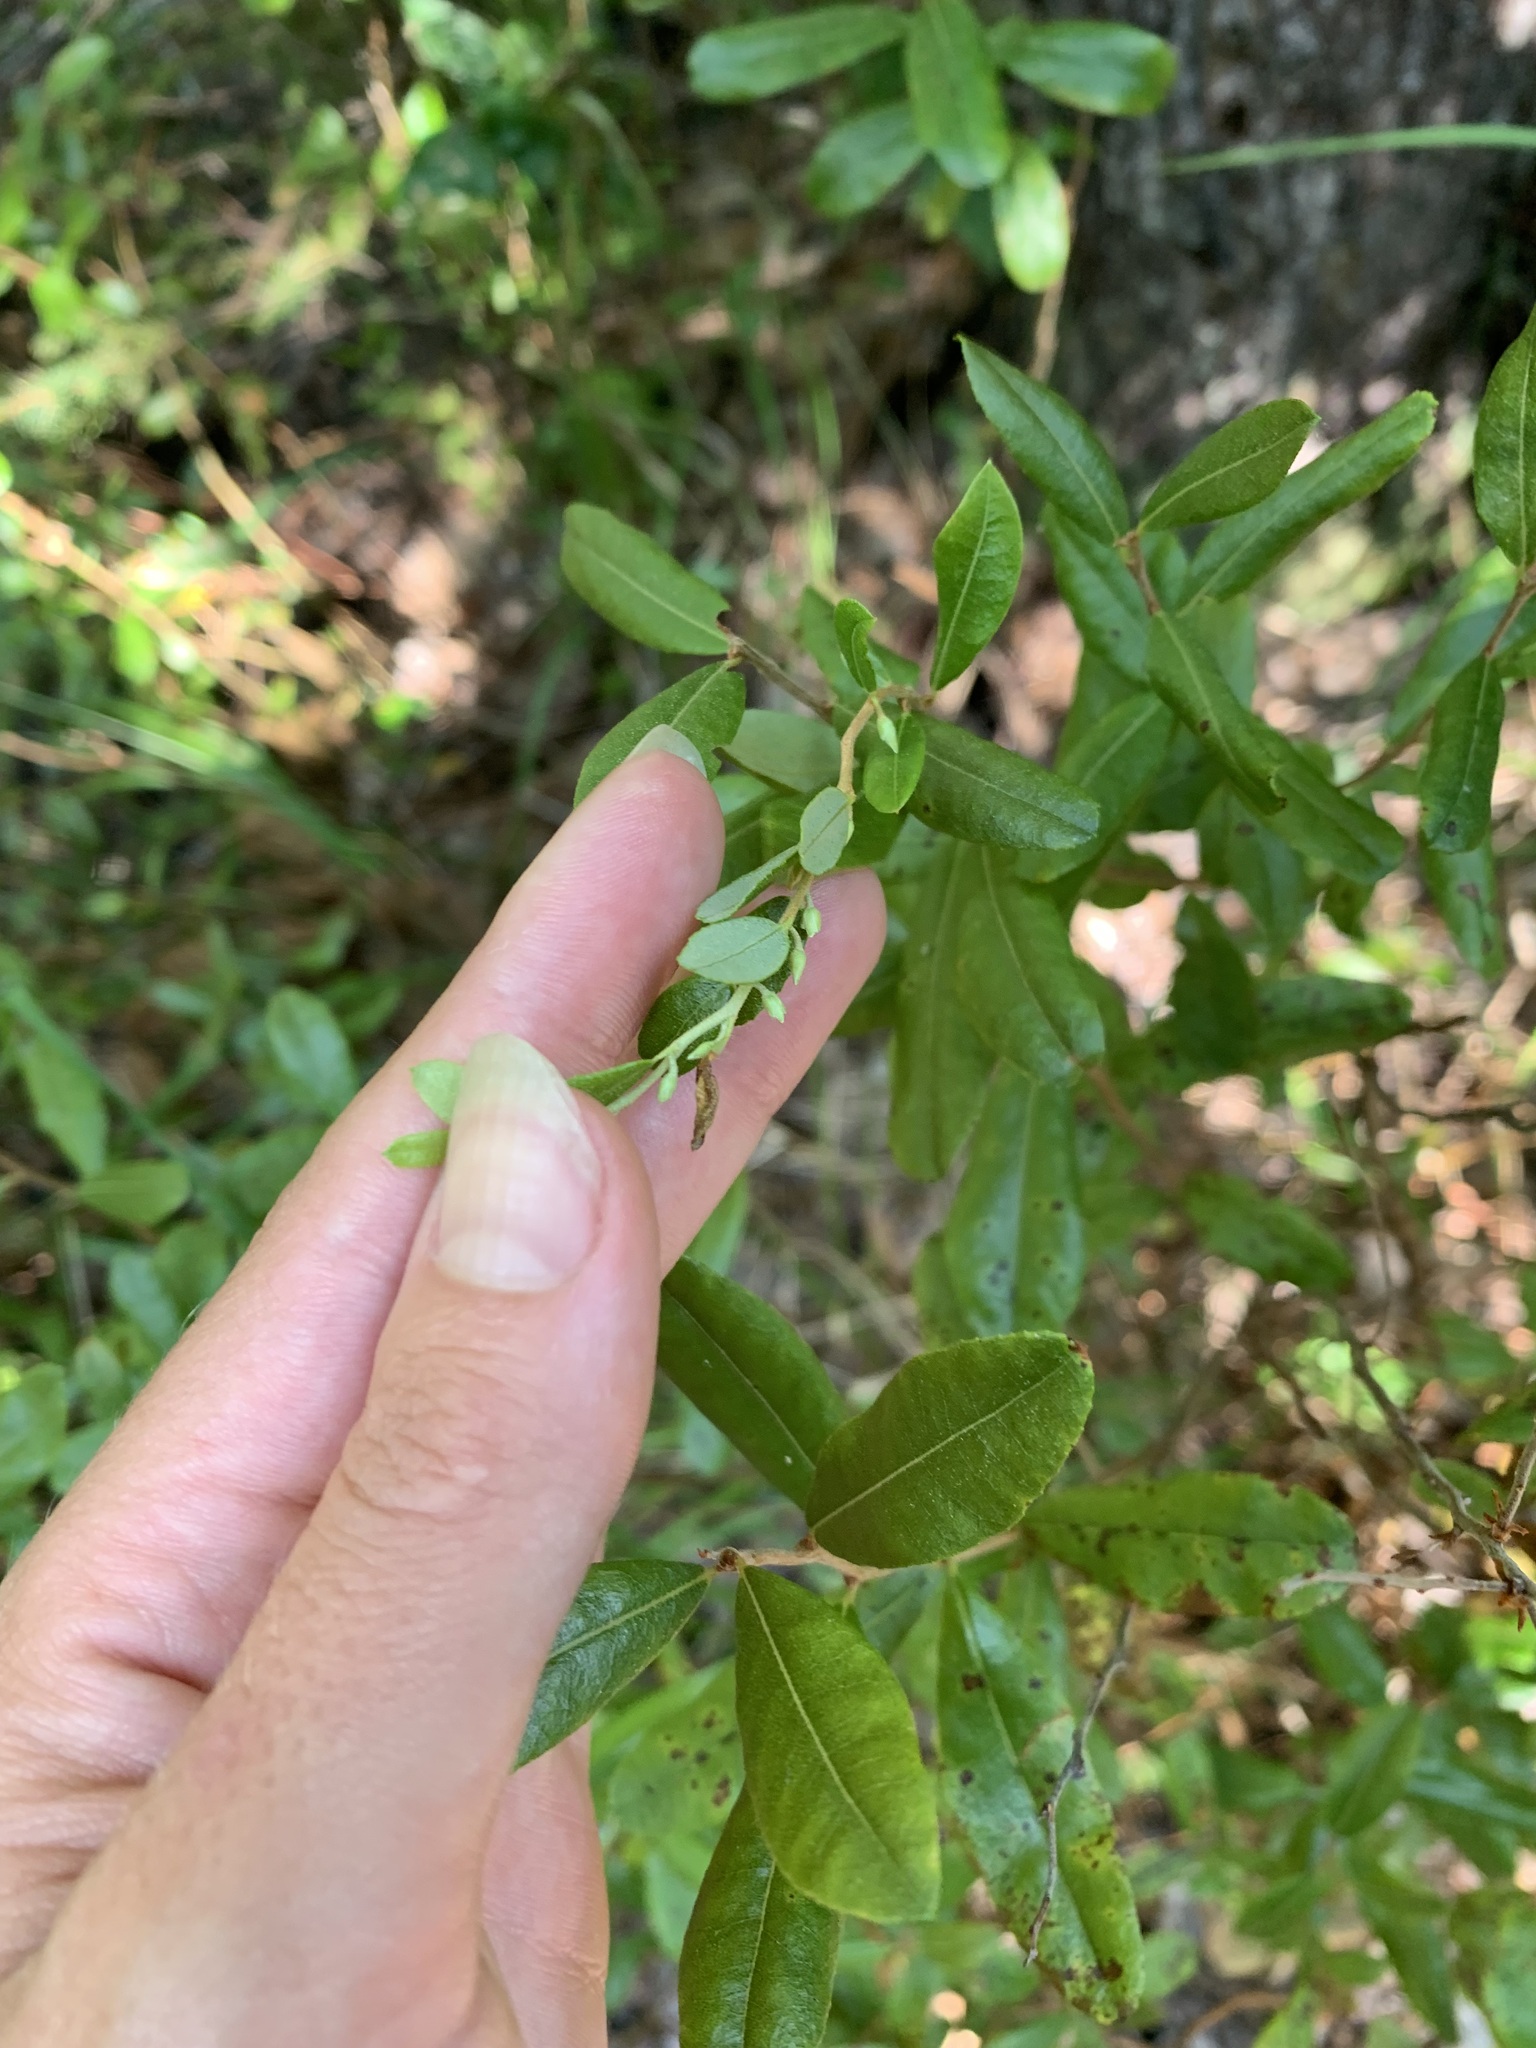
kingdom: Plantae
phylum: Tracheophyta
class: Magnoliopsida
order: Ericales
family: Ericaceae
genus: Chamaedaphne
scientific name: Chamaedaphne calyculata
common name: Leatherleaf
